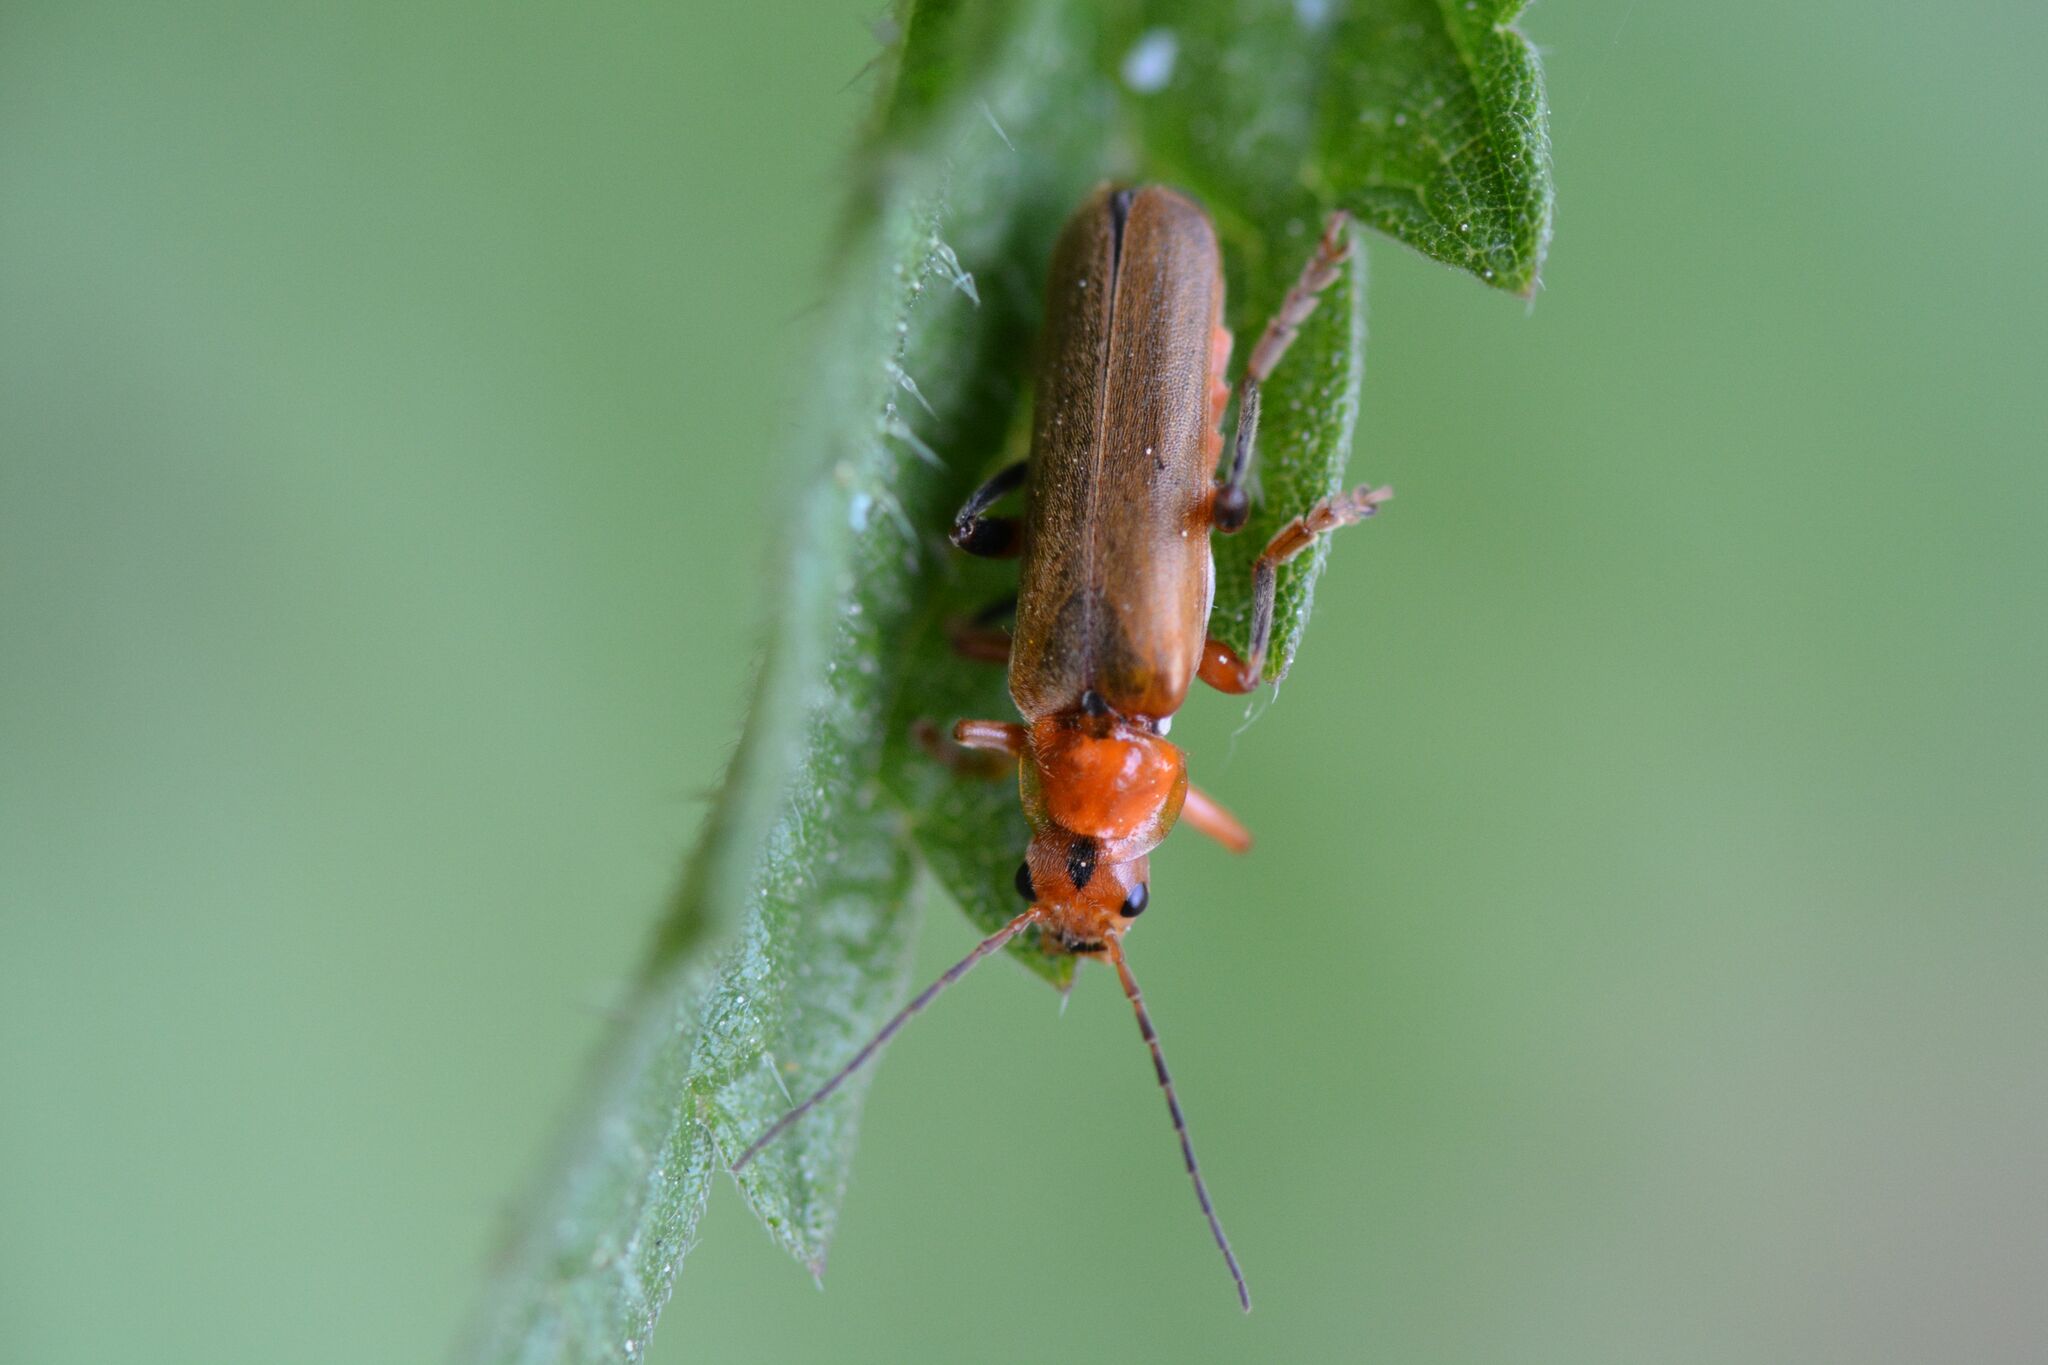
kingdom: Animalia
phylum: Arthropoda
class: Insecta
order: Coleoptera
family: Cantharidae
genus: Cantharis
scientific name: Cantharis livida
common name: Livid soldier beetle
